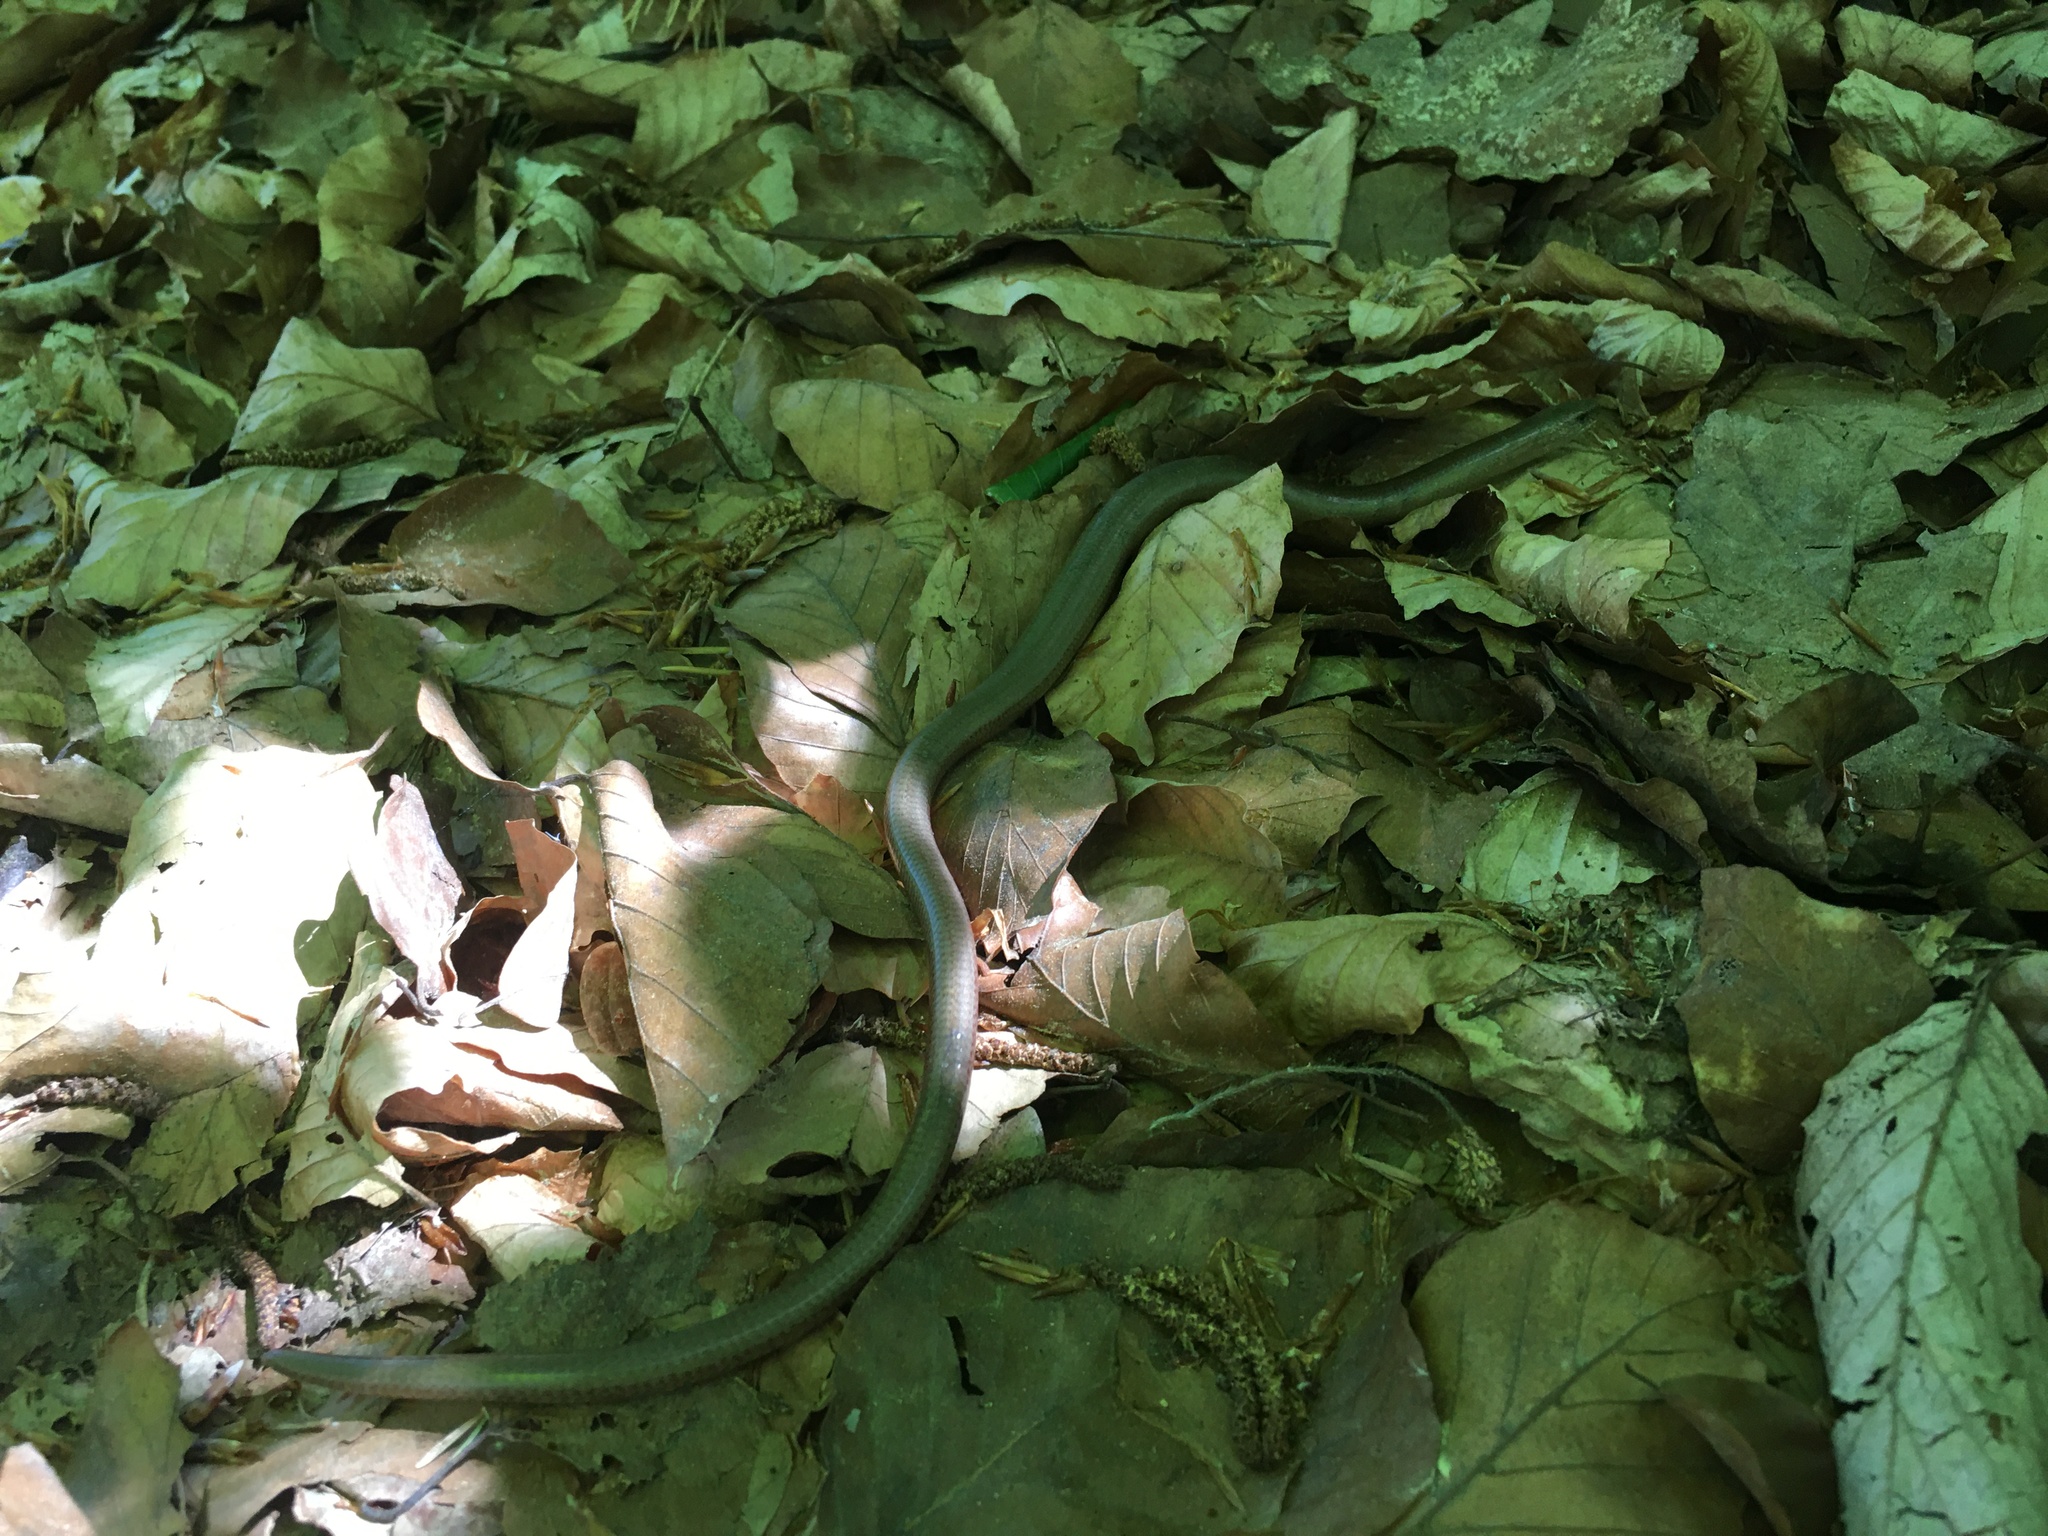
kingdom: Animalia
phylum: Chordata
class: Squamata
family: Anguidae
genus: Anguis
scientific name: Anguis fragilis
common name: Slow worm
